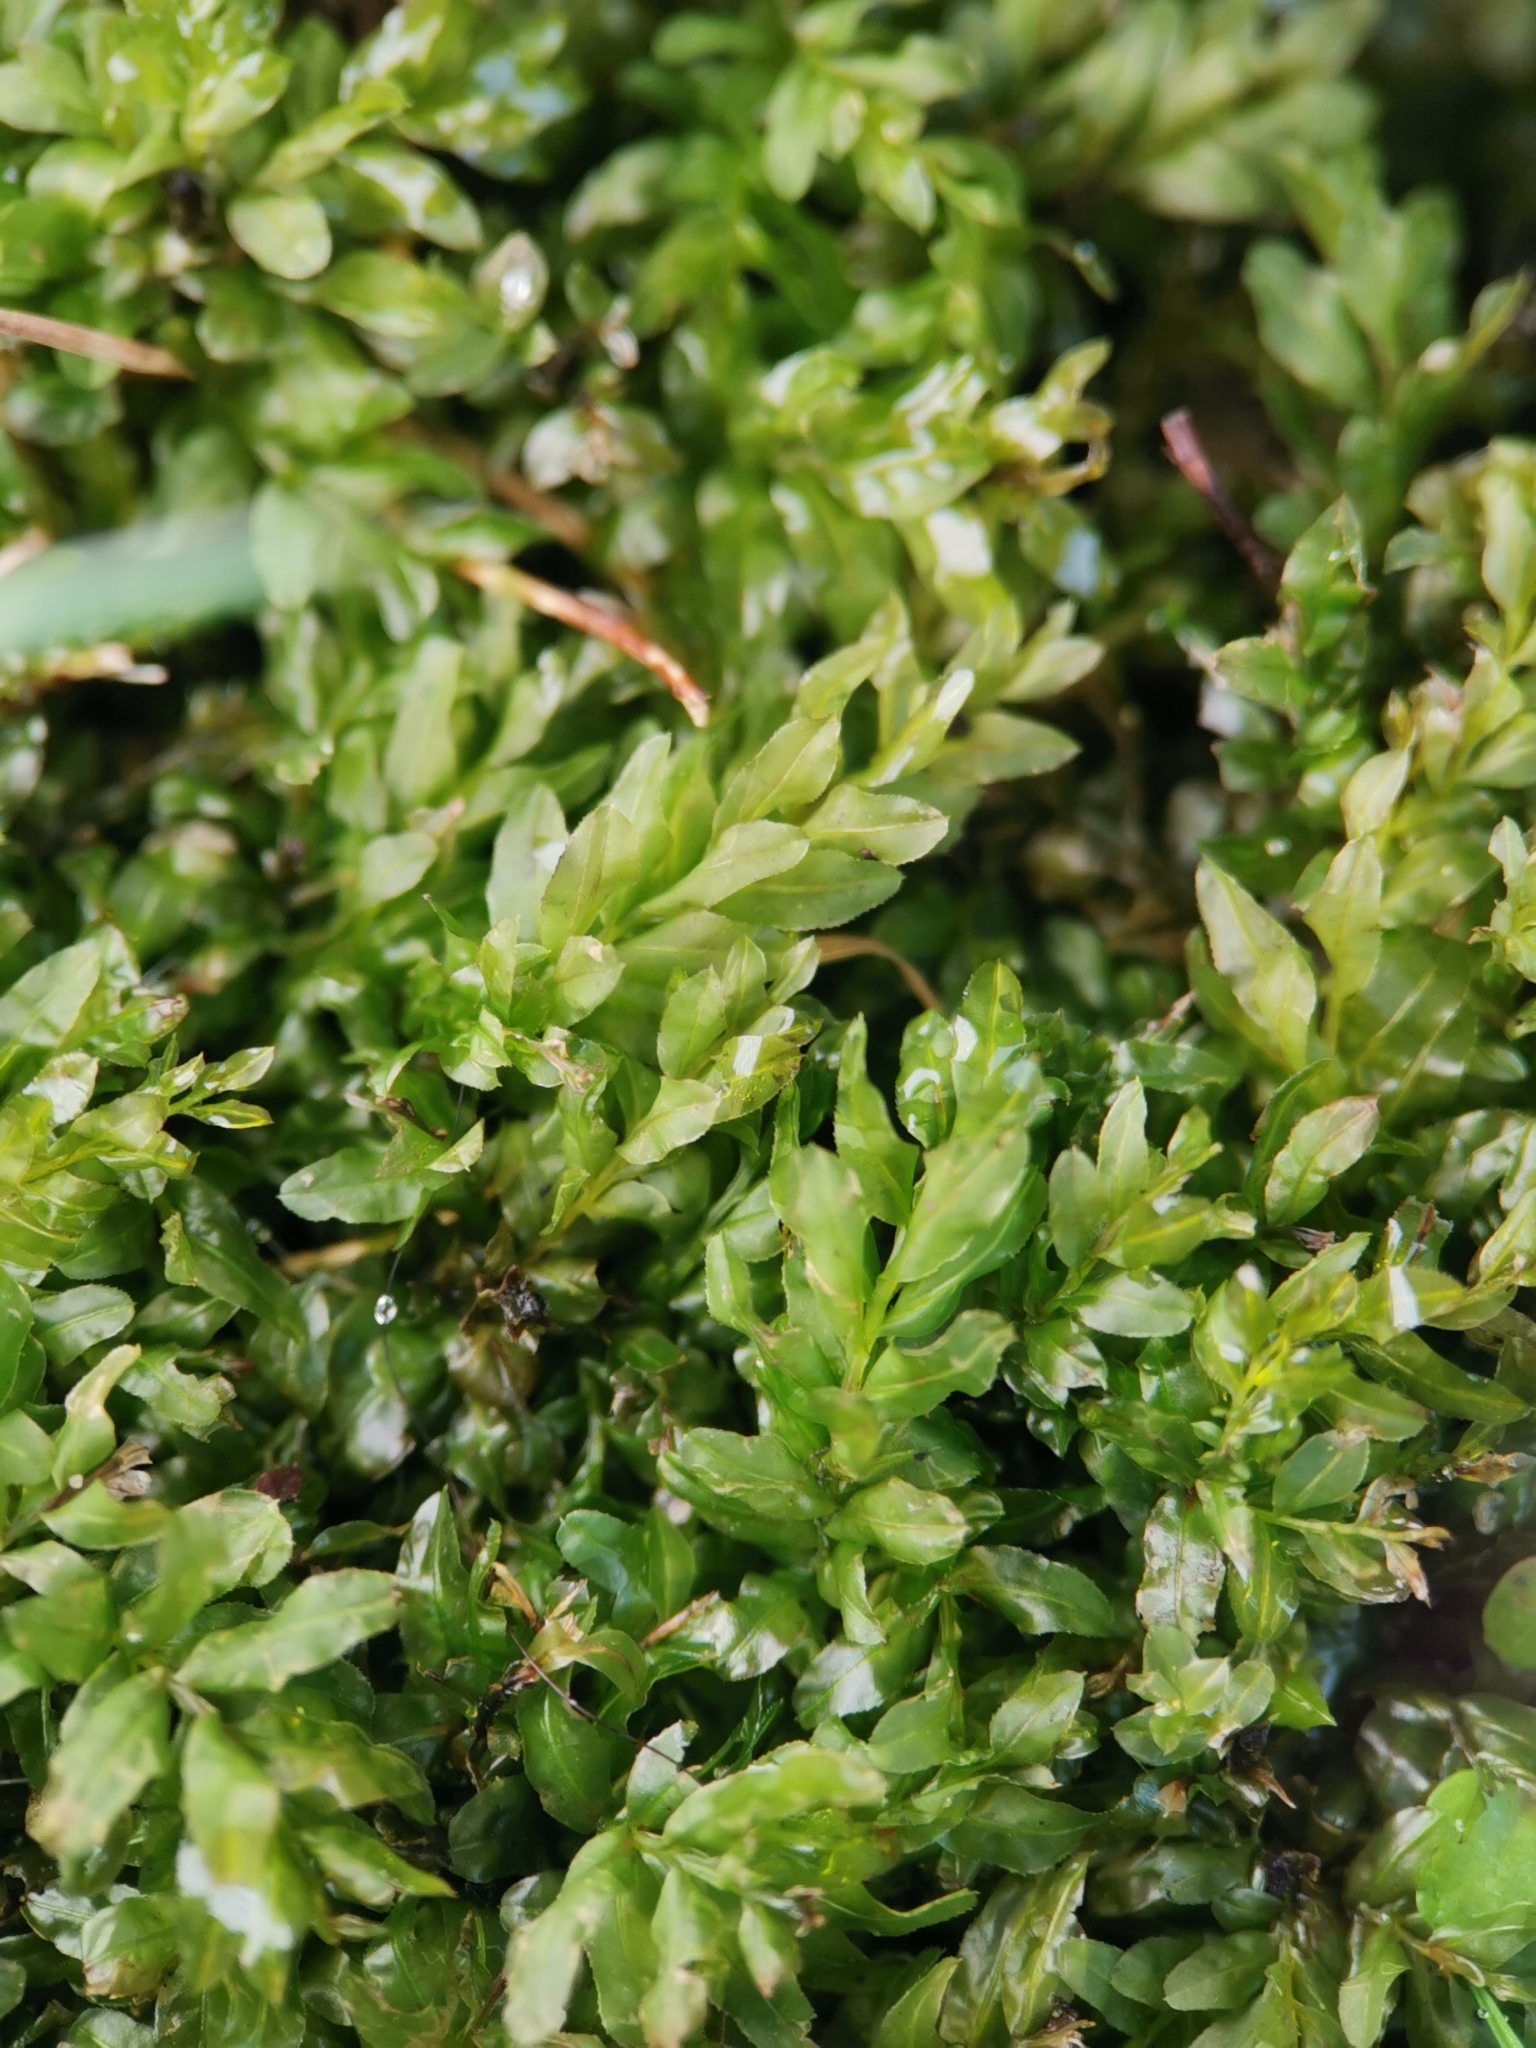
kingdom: Plantae
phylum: Bryophyta
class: Bryopsida
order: Bryales
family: Mniaceae
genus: Plagiomnium
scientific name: Plagiomnium undulatum
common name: Hart's-tongue thyme-moss
